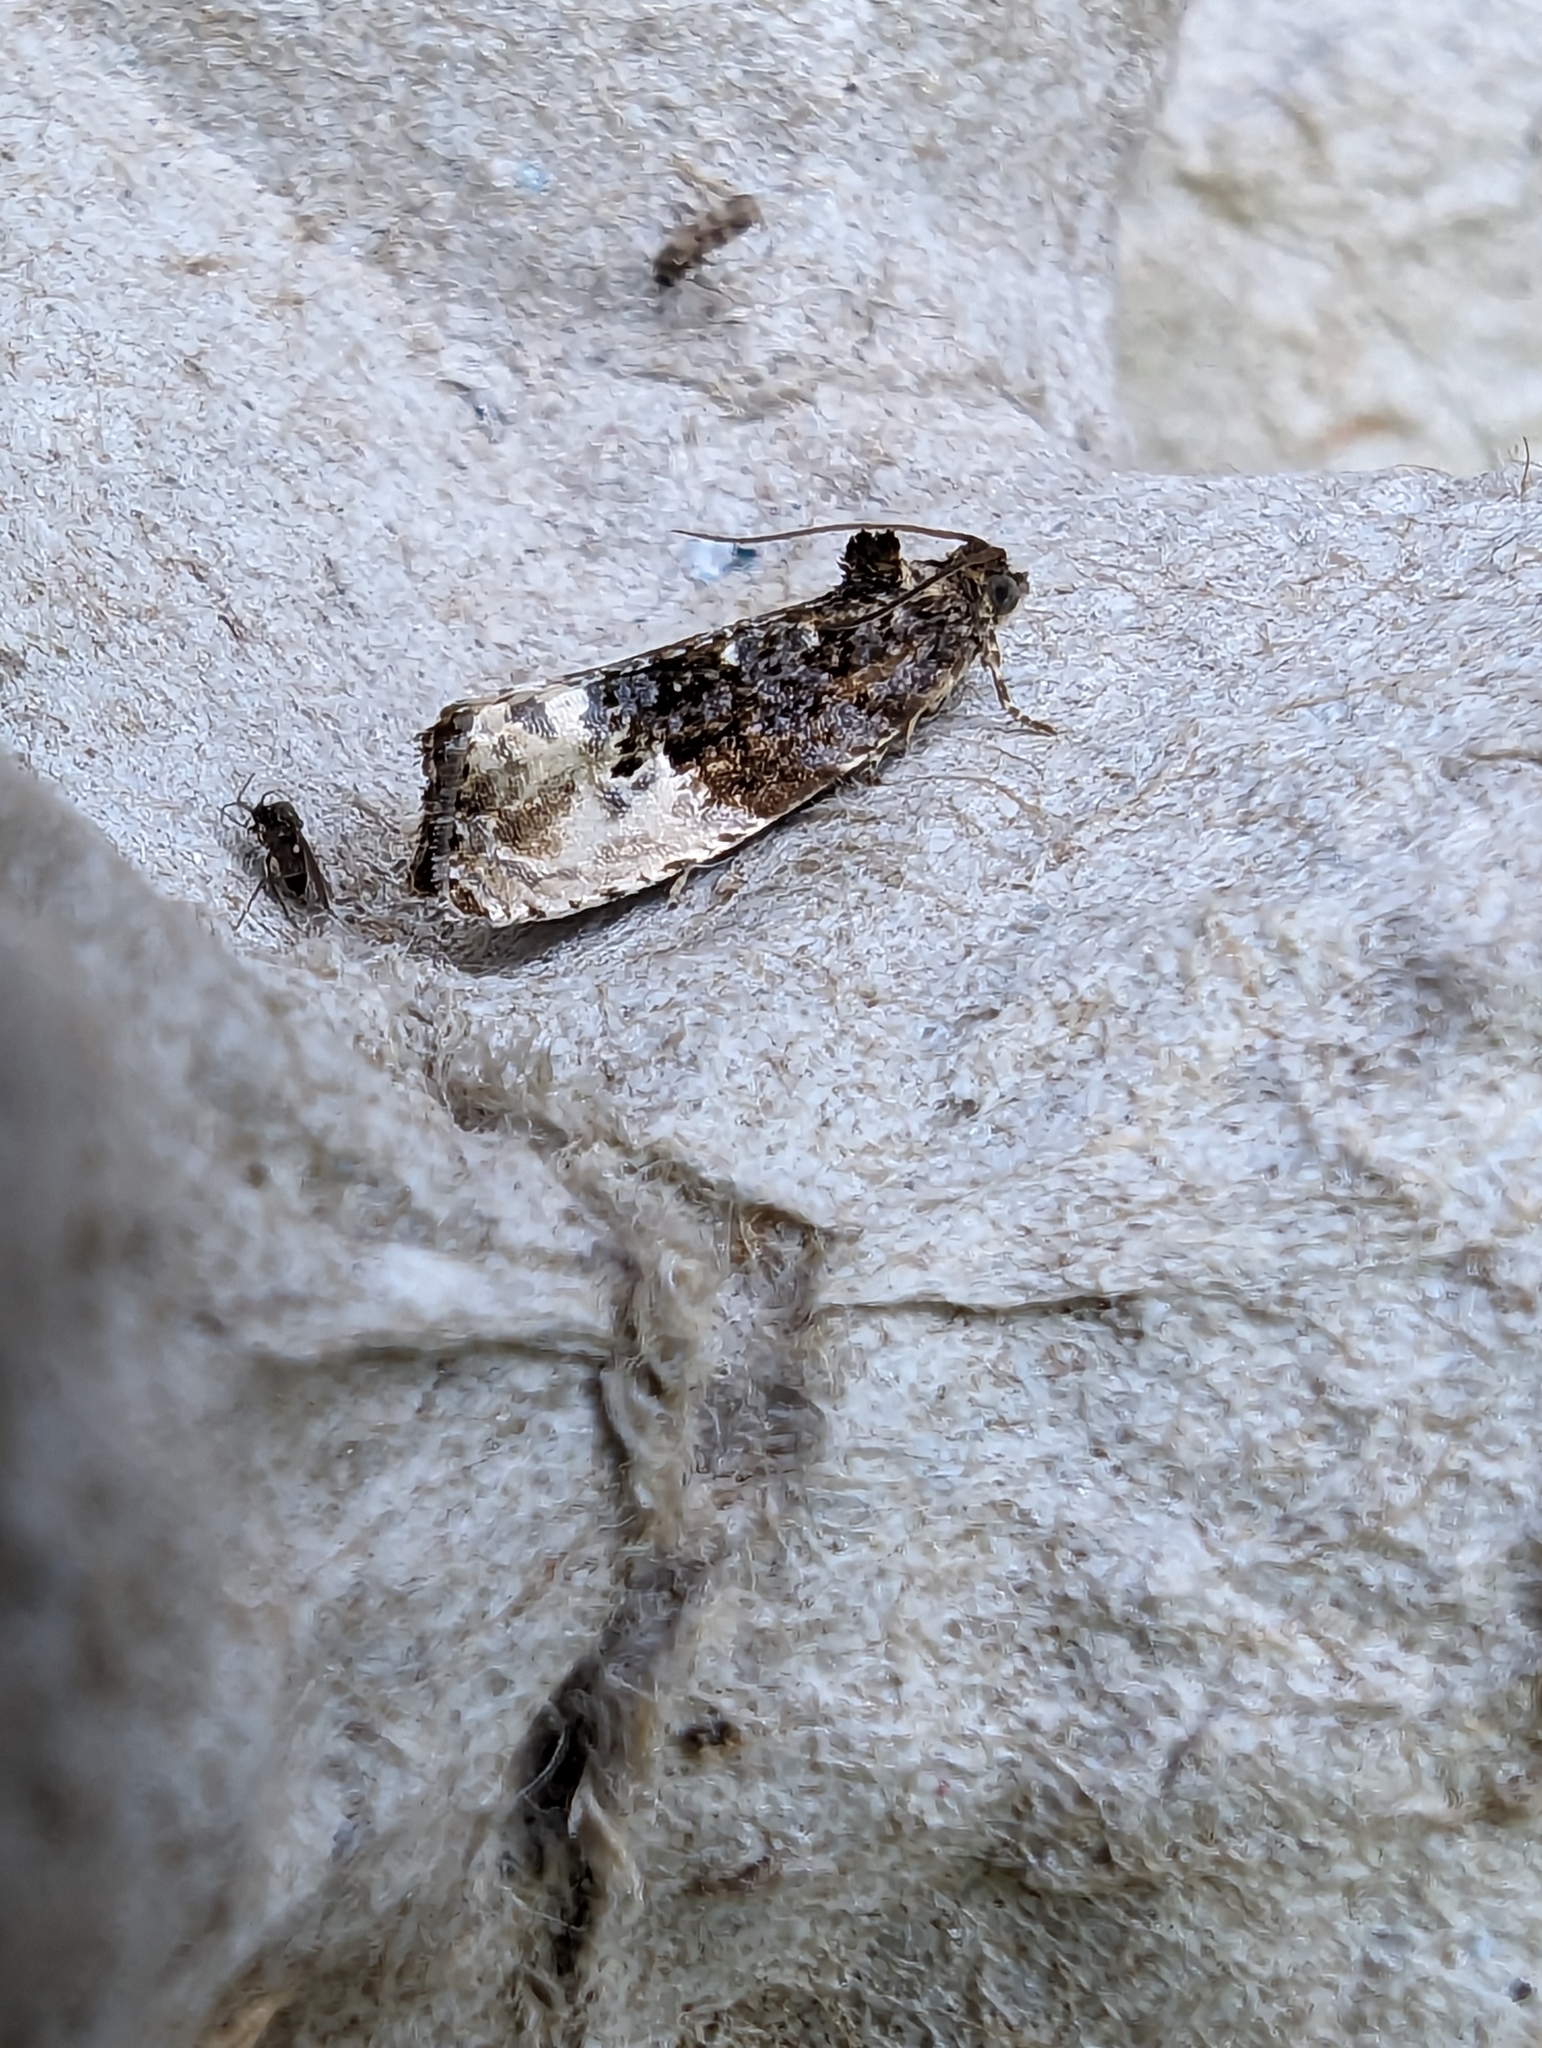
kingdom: Animalia
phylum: Arthropoda
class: Insecta
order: Lepidoptera
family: Tortricidae
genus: Hedya
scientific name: Hedya nubiferana
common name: Marbled orchard tortrix
